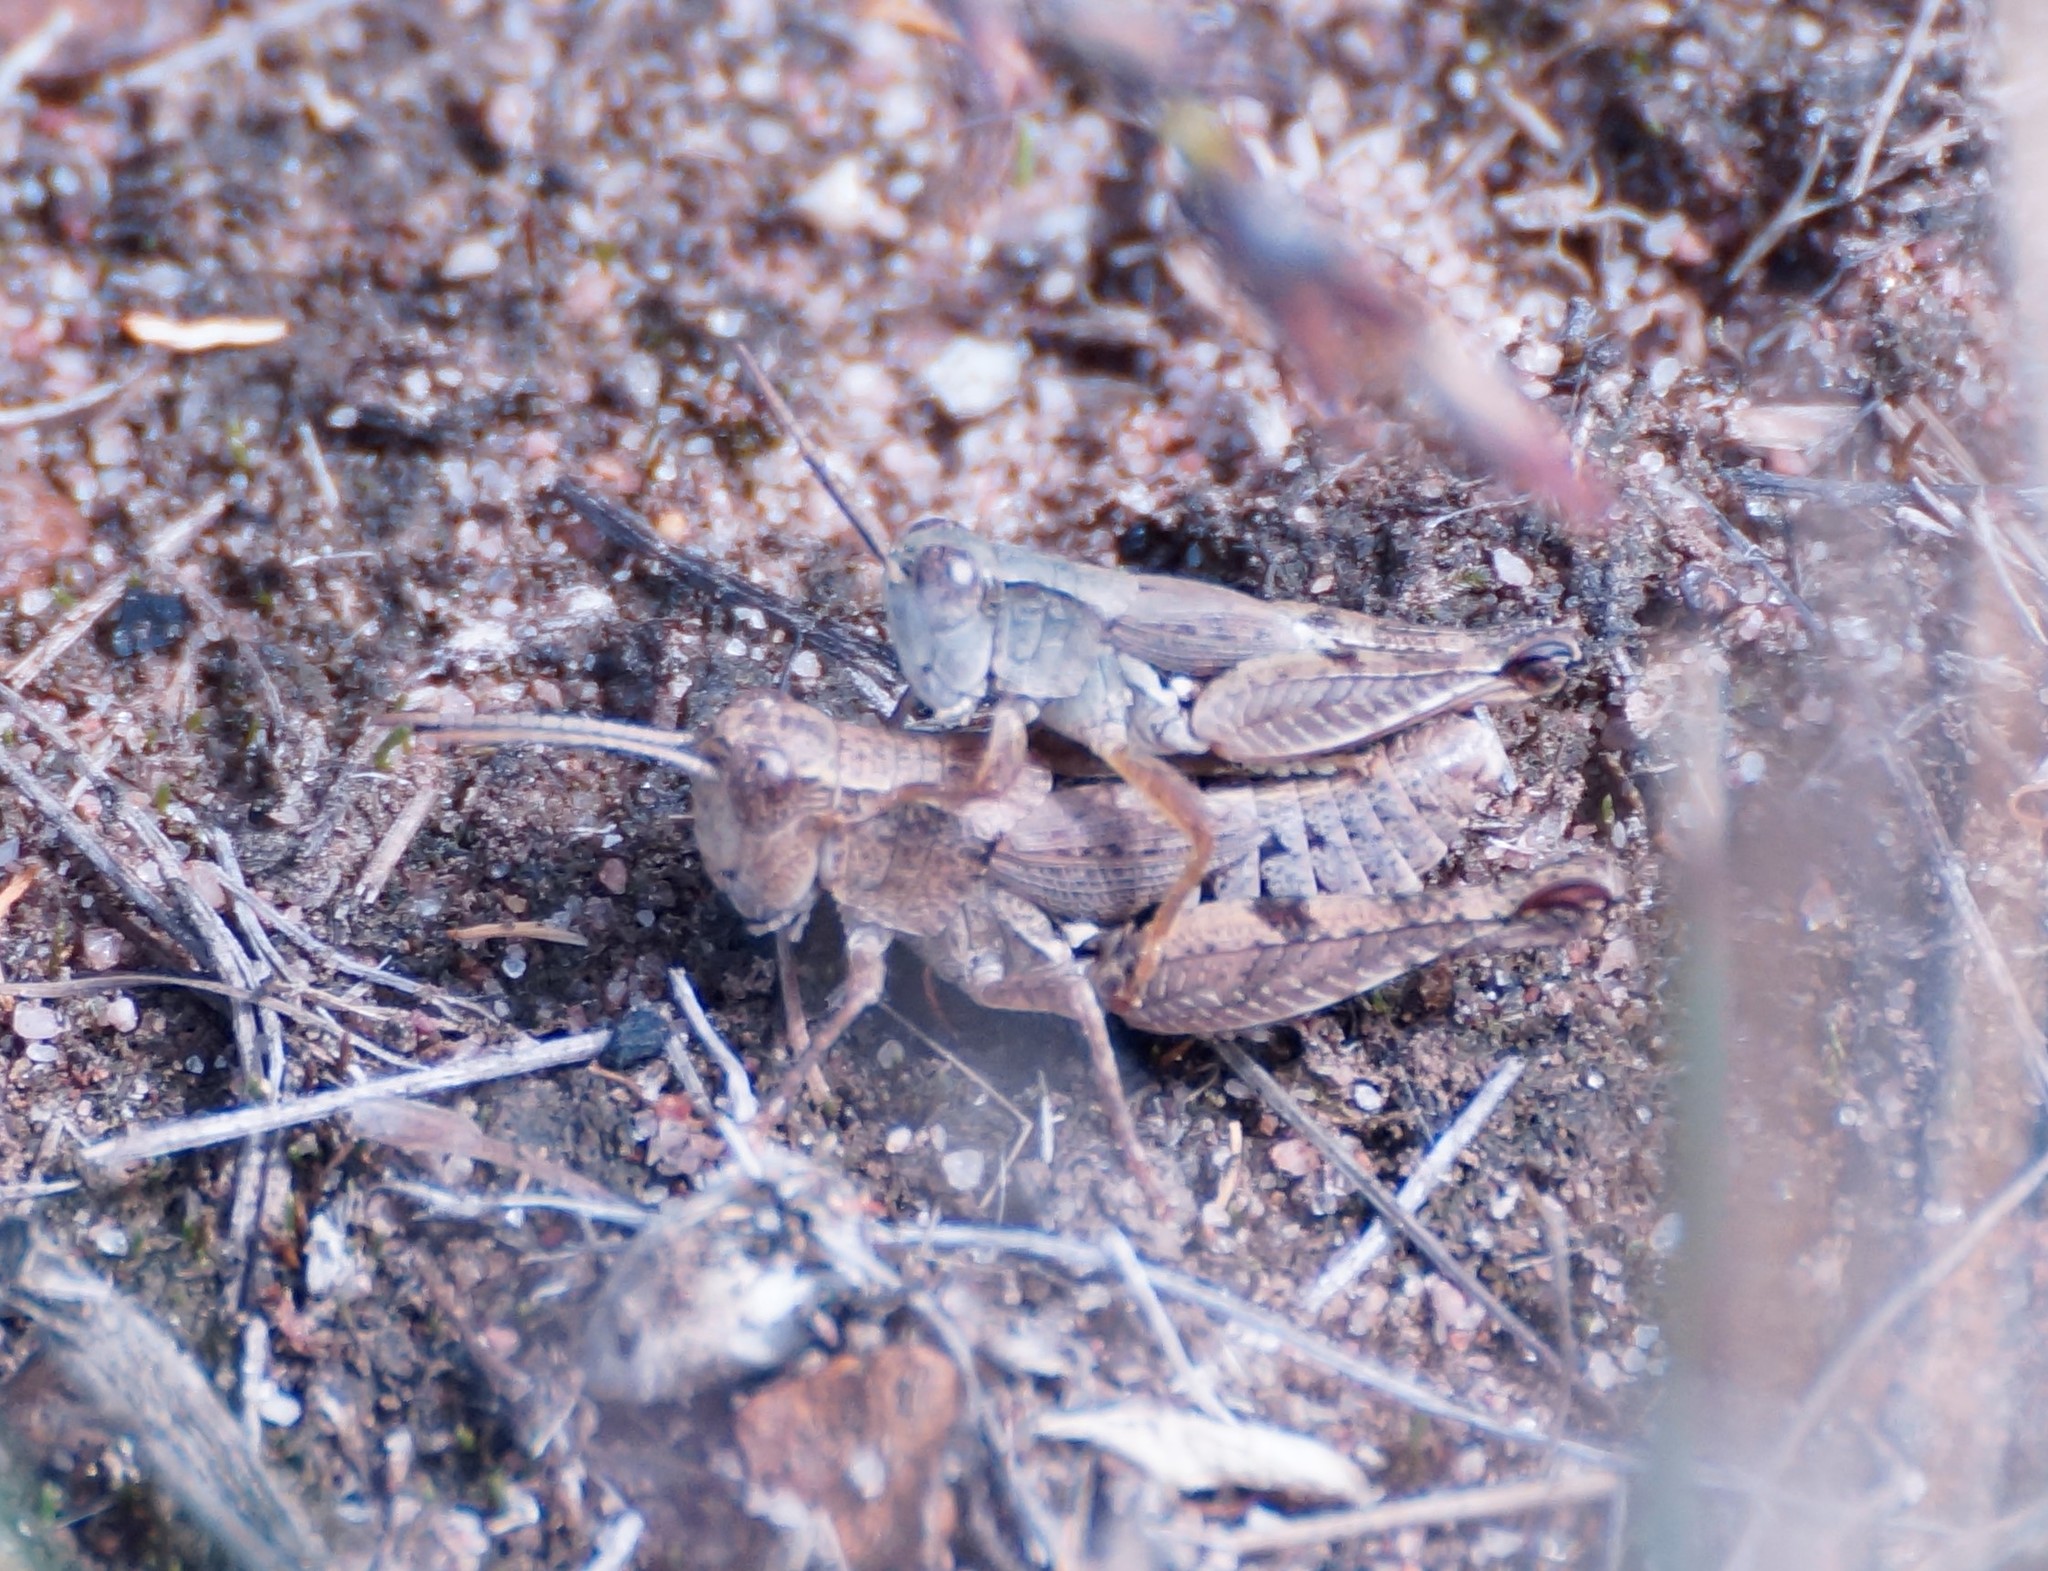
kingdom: Animalia
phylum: Arthropoda
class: Insecta
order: Orthoptera
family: Acrididae
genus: Phaulacridium
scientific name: Phaulacridium vittatum
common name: Wingless grasshopper
